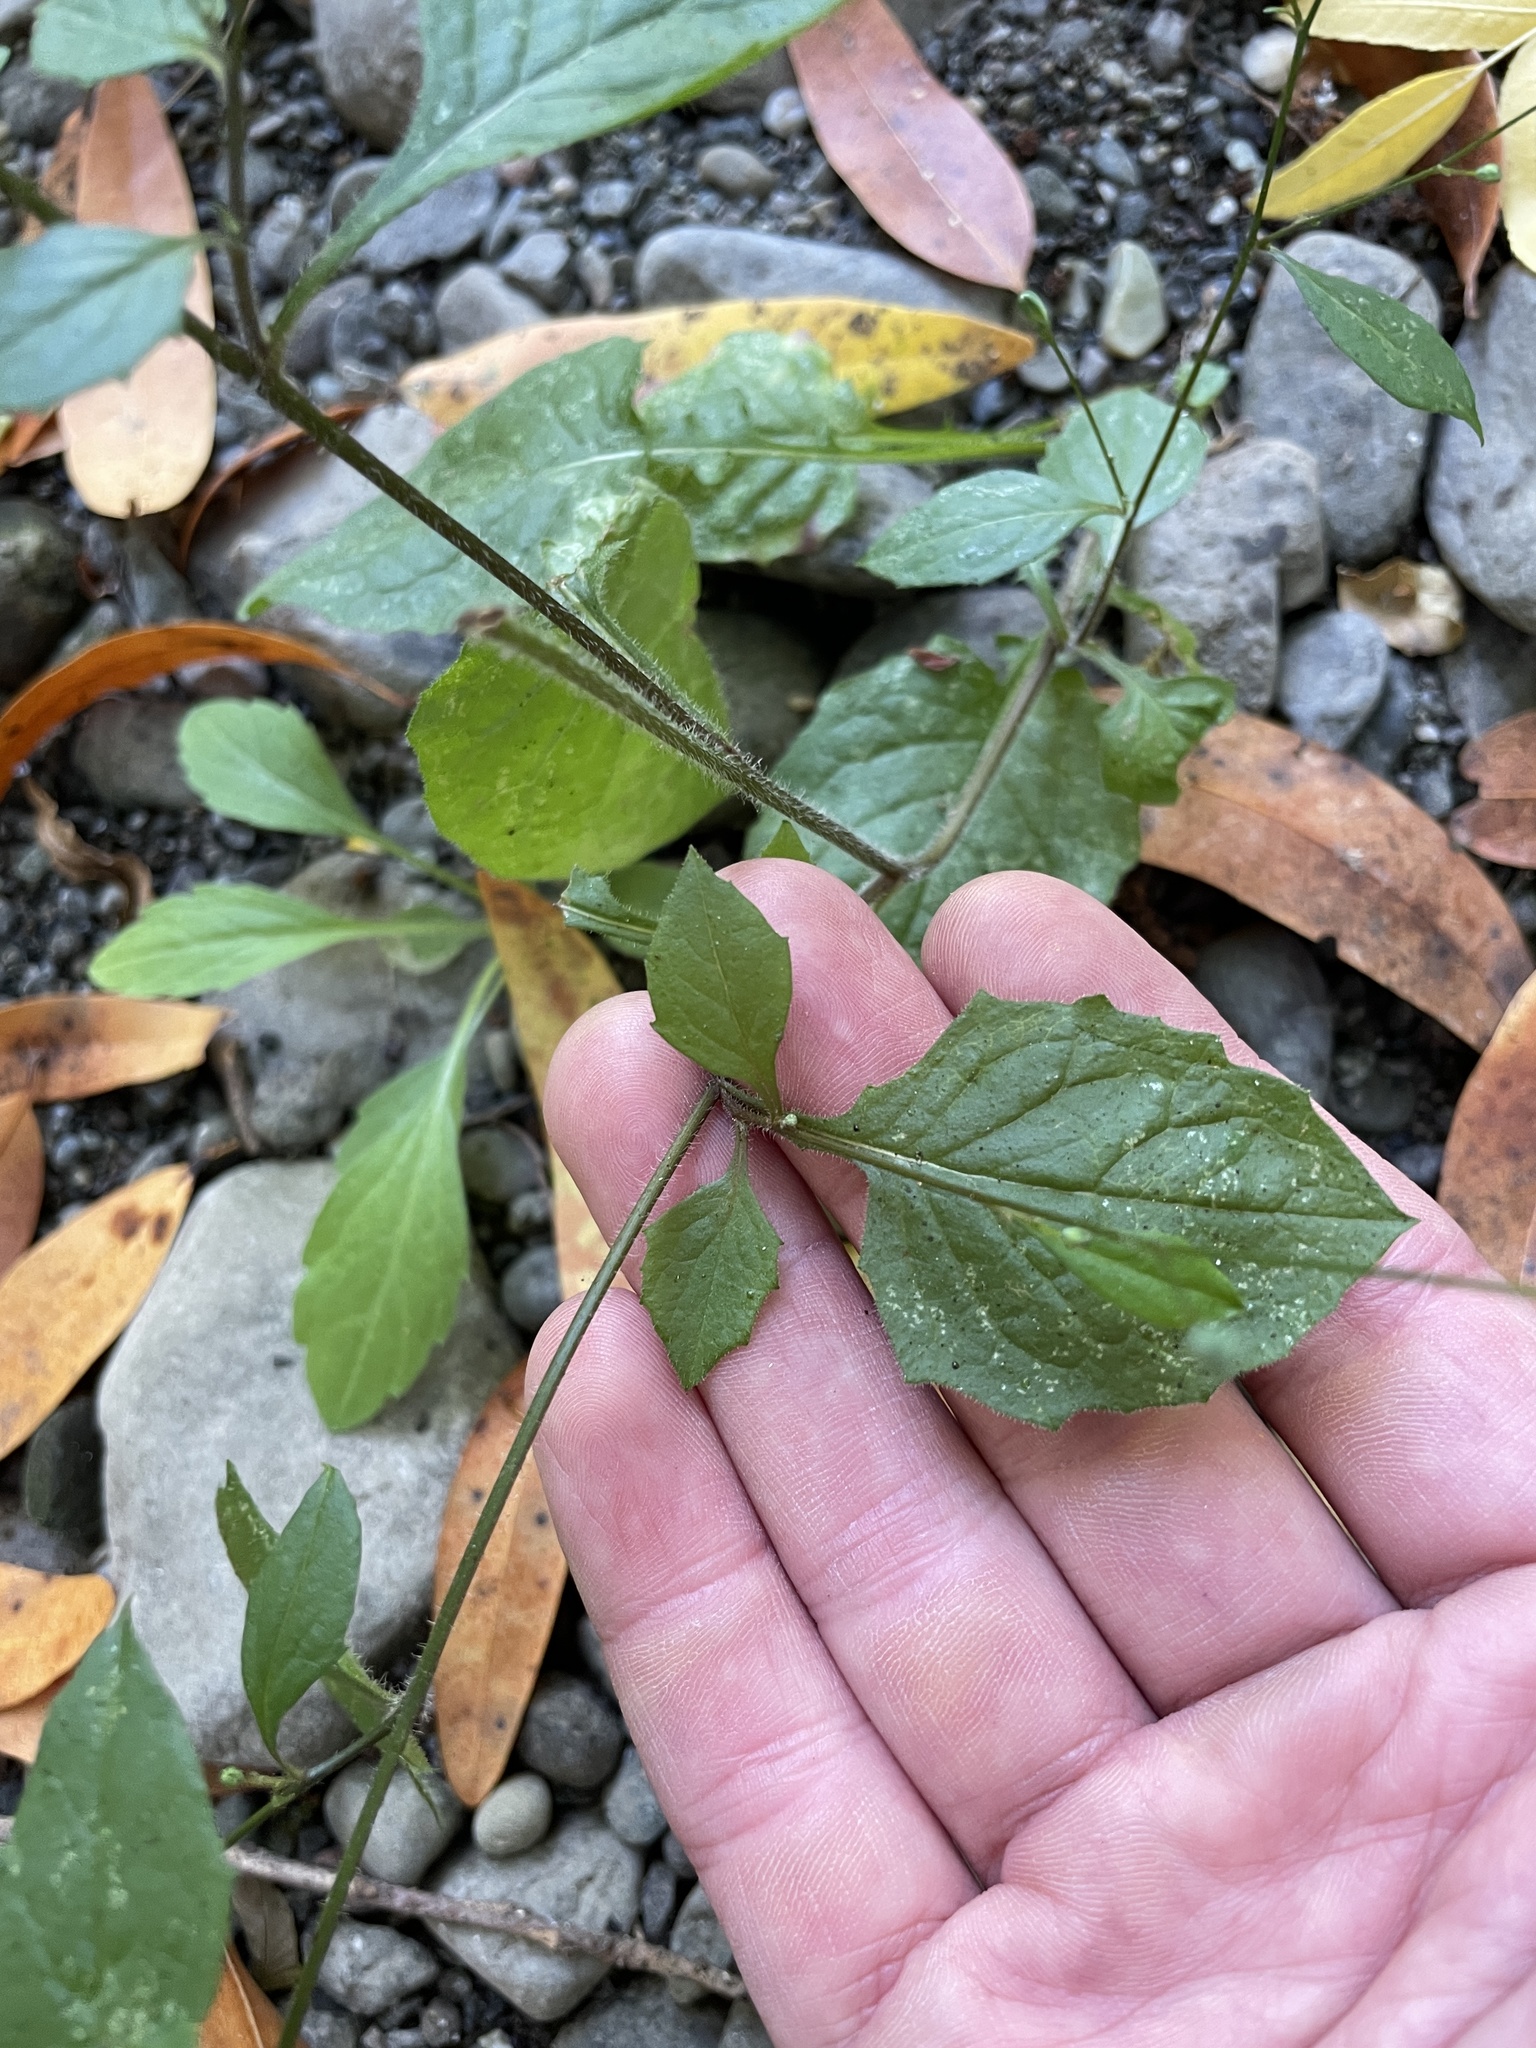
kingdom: Plantae
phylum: Tracheophyta
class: Magnoliopsida
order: Asterales
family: Asteraceae
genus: Lapsana
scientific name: Lapsana communis
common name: Nipplewort
